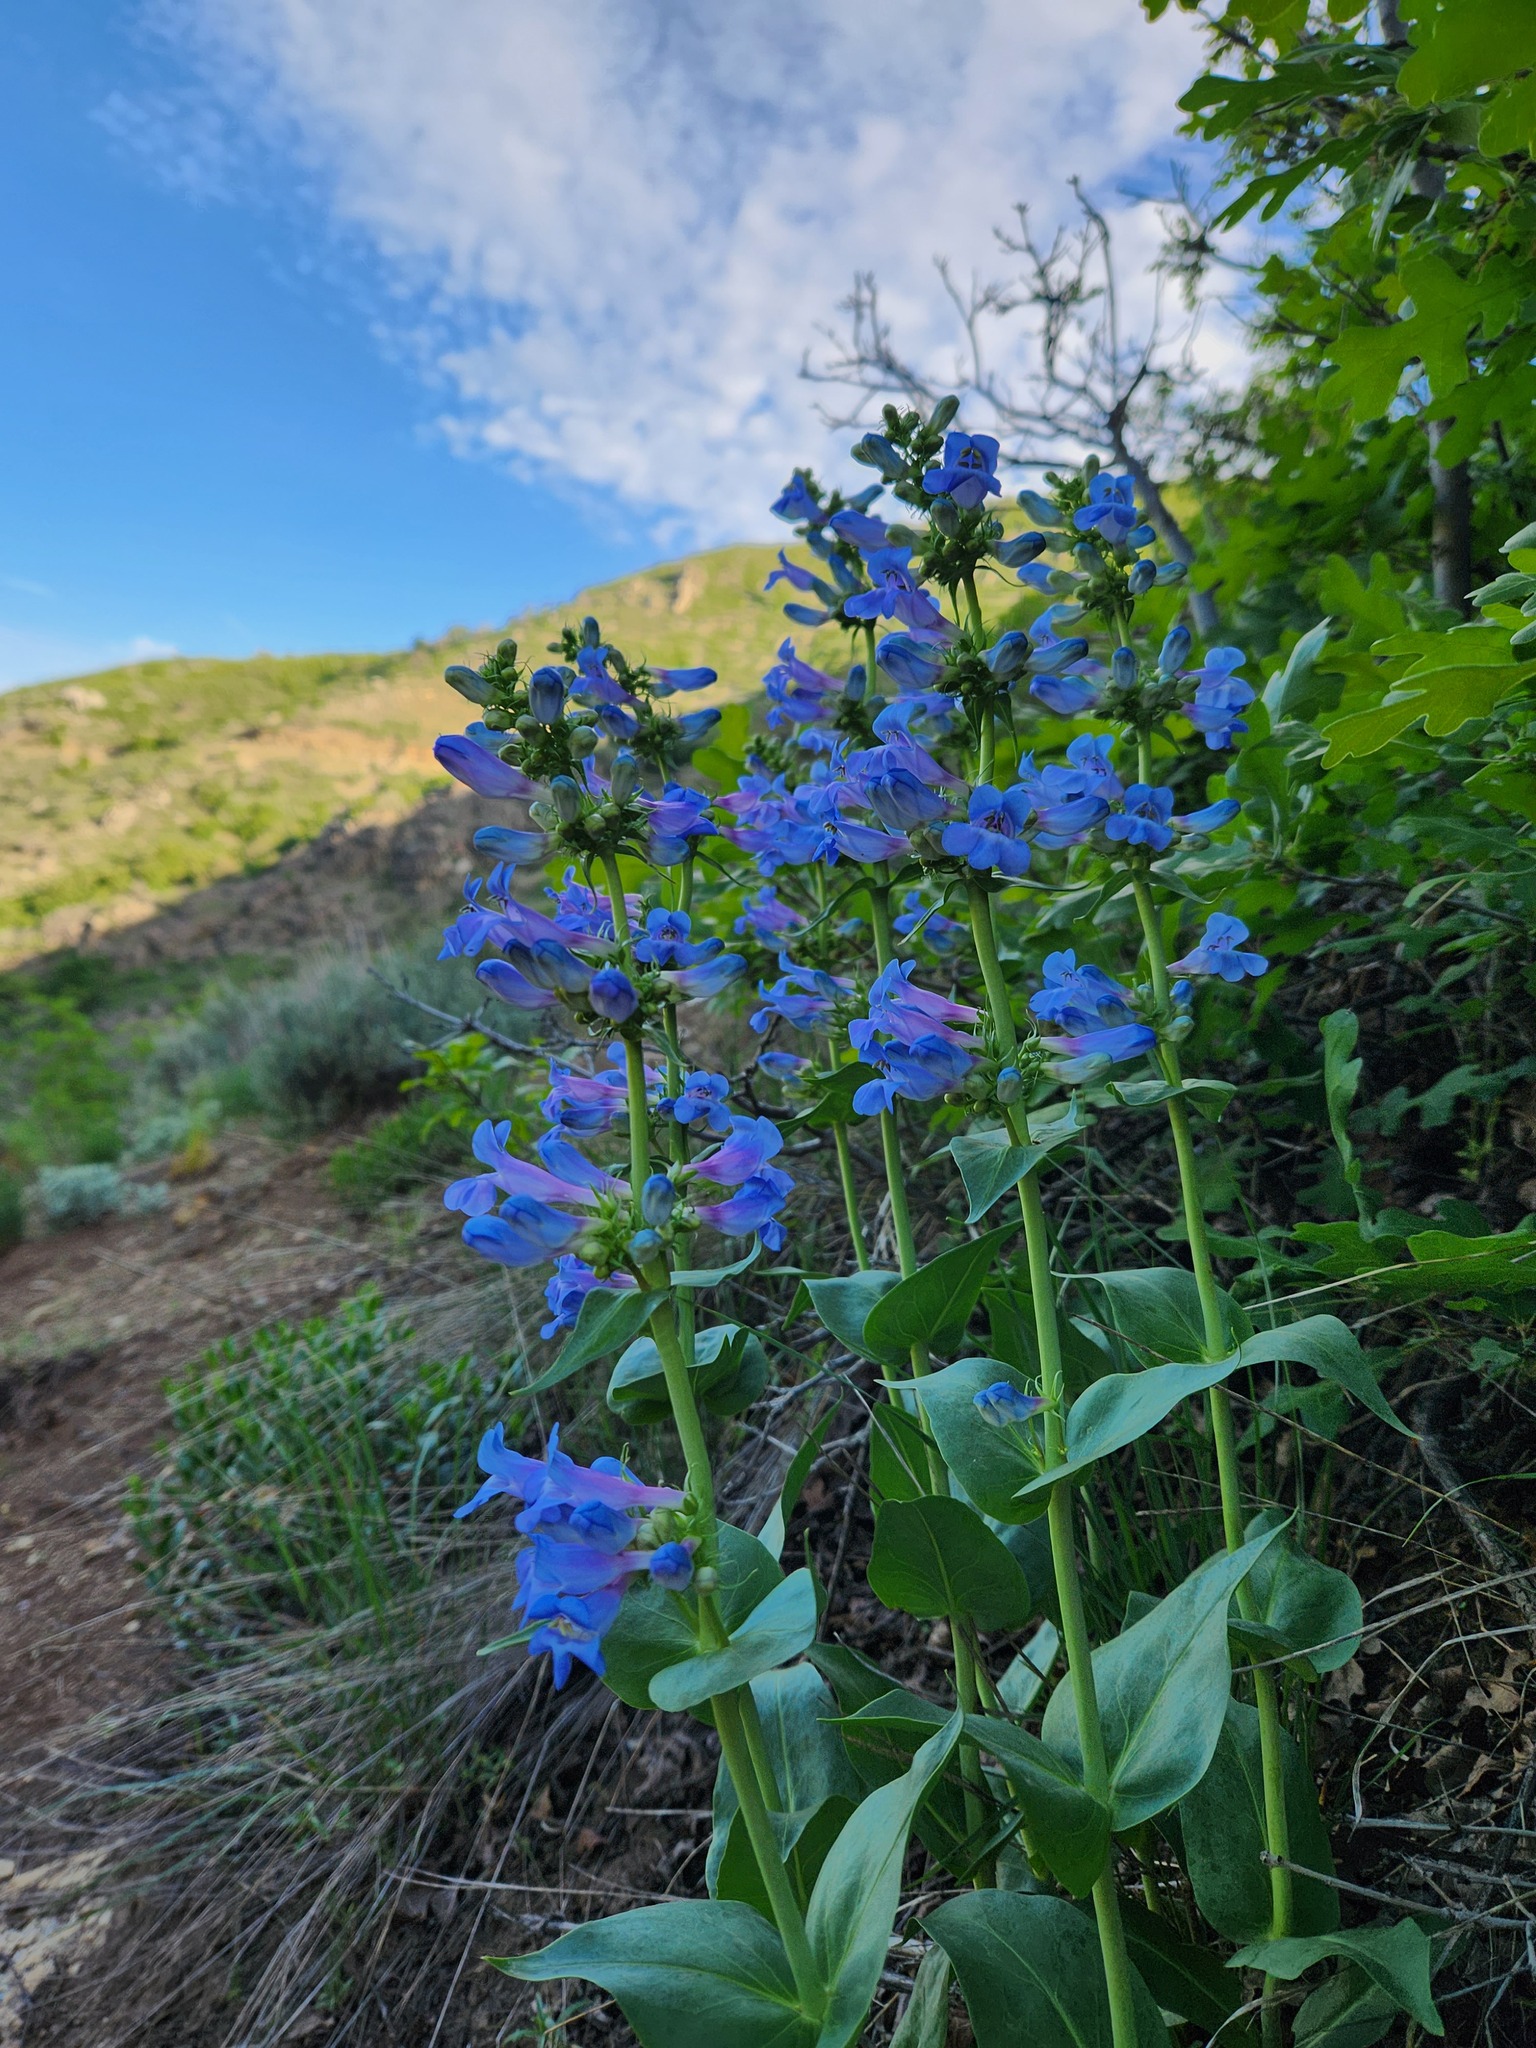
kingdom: Plantae
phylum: Tracheophyta
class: Magnoliopsida
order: Lamiales
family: Plantaginaceae
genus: Penstemon
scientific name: Penstemon cyananthus
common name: Wasatch penstemon
